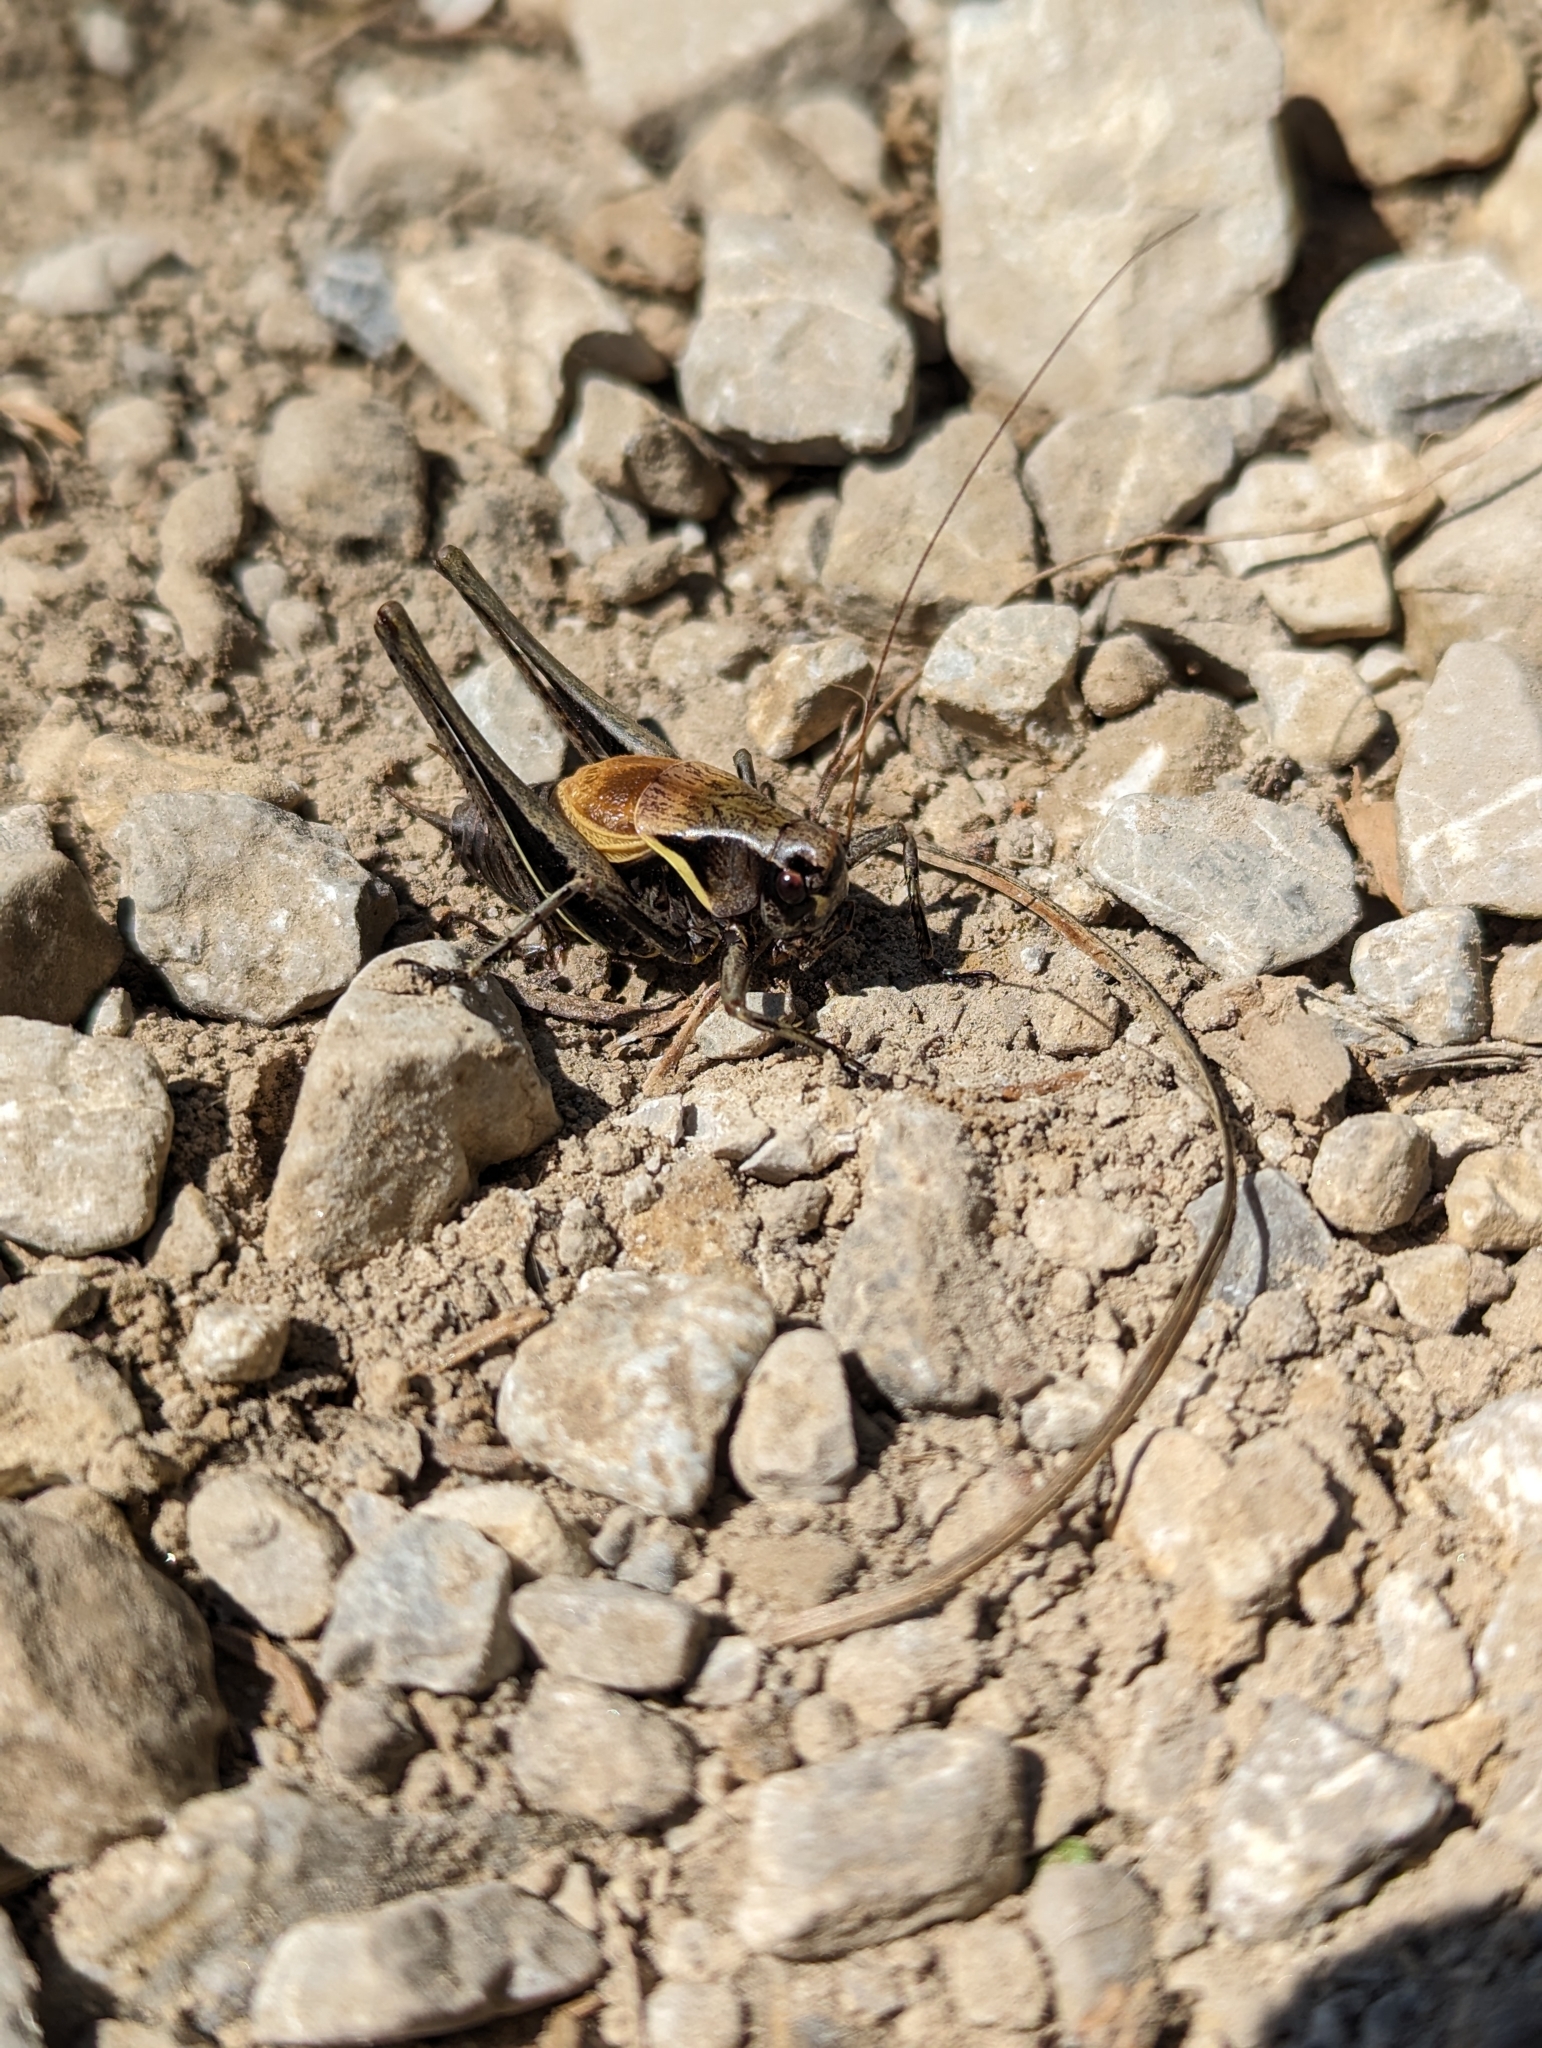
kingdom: Animalia
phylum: Arthropoda
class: Insecta
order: Orthoptera
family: Tettigoniidae
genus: Pholidoptera
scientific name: Pholidoptera aptera
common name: Alpine dark bush-cricket
